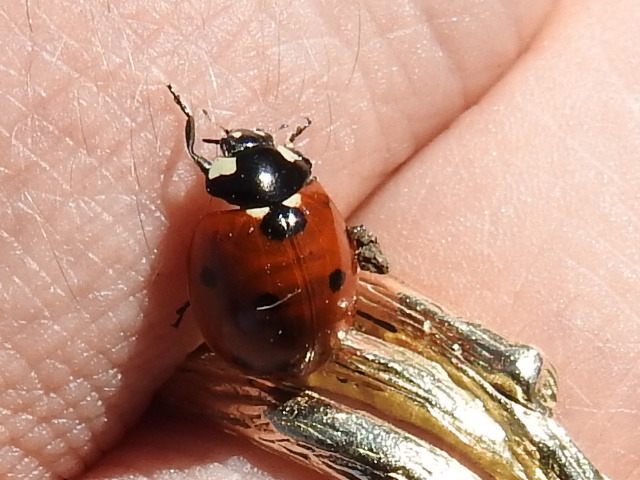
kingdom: Animalia
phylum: Arthropoda
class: Insecta
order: Coleoptera
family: Coccinellidae
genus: Coccinella
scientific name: Coccinella septempunctata
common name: Sevenspotted lady beetle
